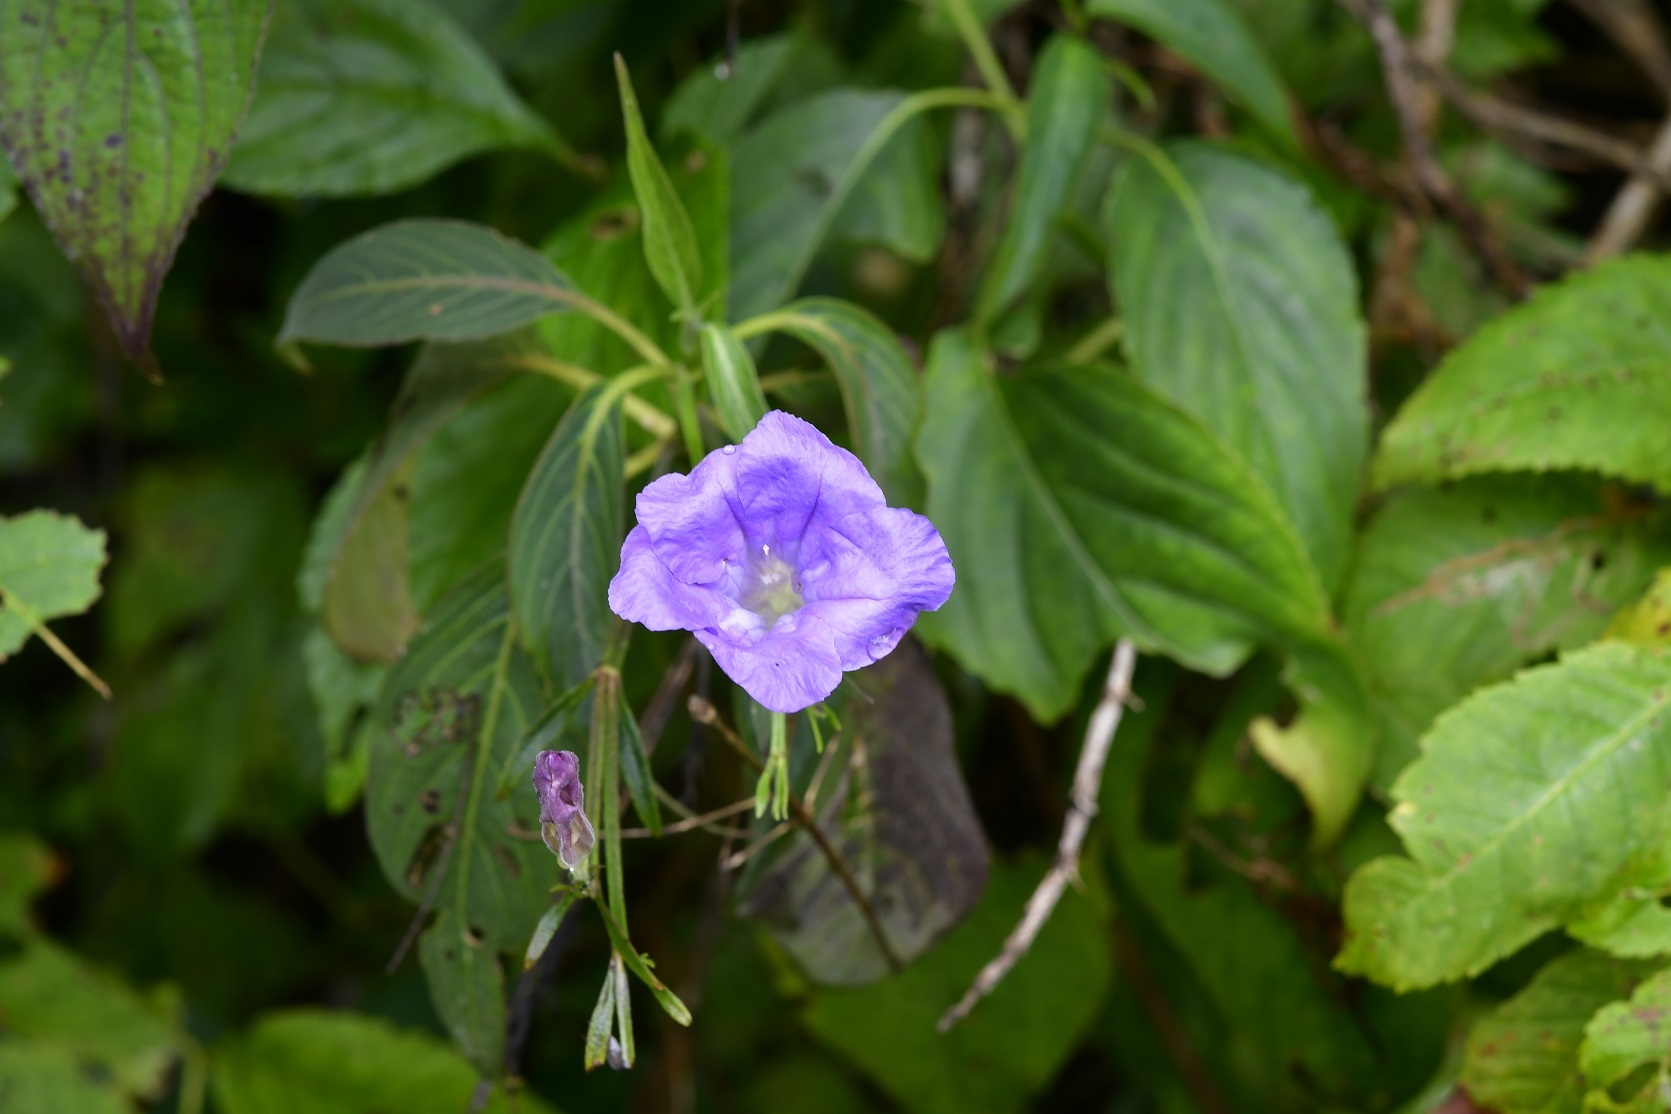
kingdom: Plantae
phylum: Tracheophyta
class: Magnoliopsida
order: Lamiales
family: Acanthaceae
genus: Ruellia
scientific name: Ruellia breedlovei
